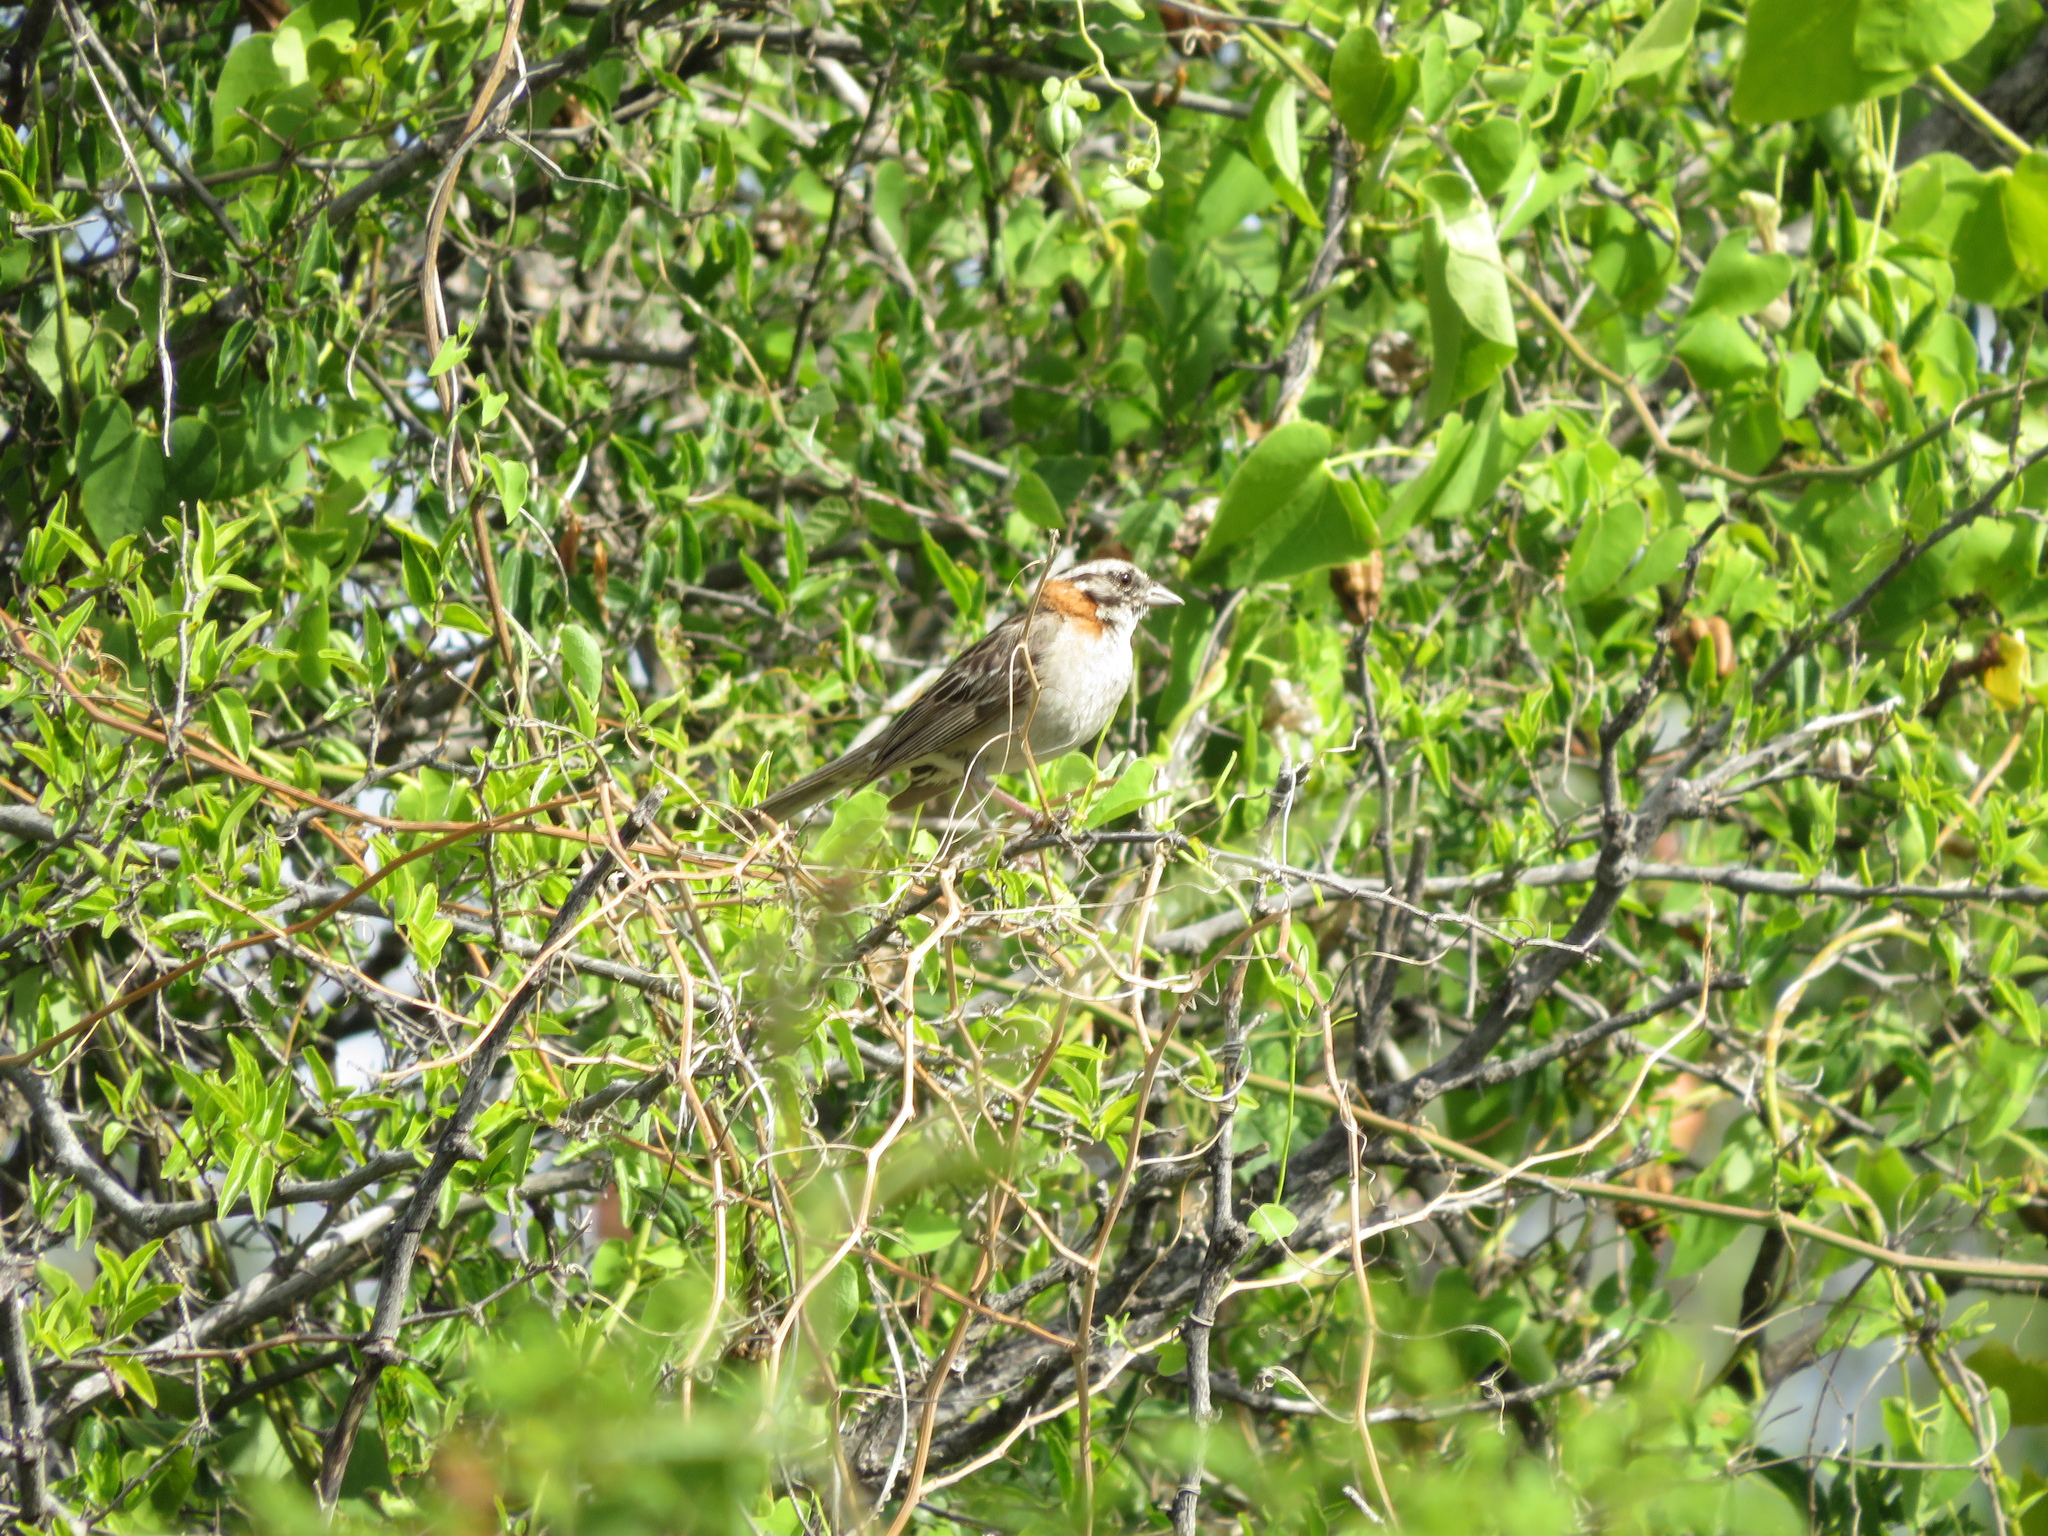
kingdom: Animalia
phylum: Chordata
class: Aves
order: Passeriformes
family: Passerellidae
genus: Zonotrichia
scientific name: Zonotrichia capensis
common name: Rufous-collared sparrow
